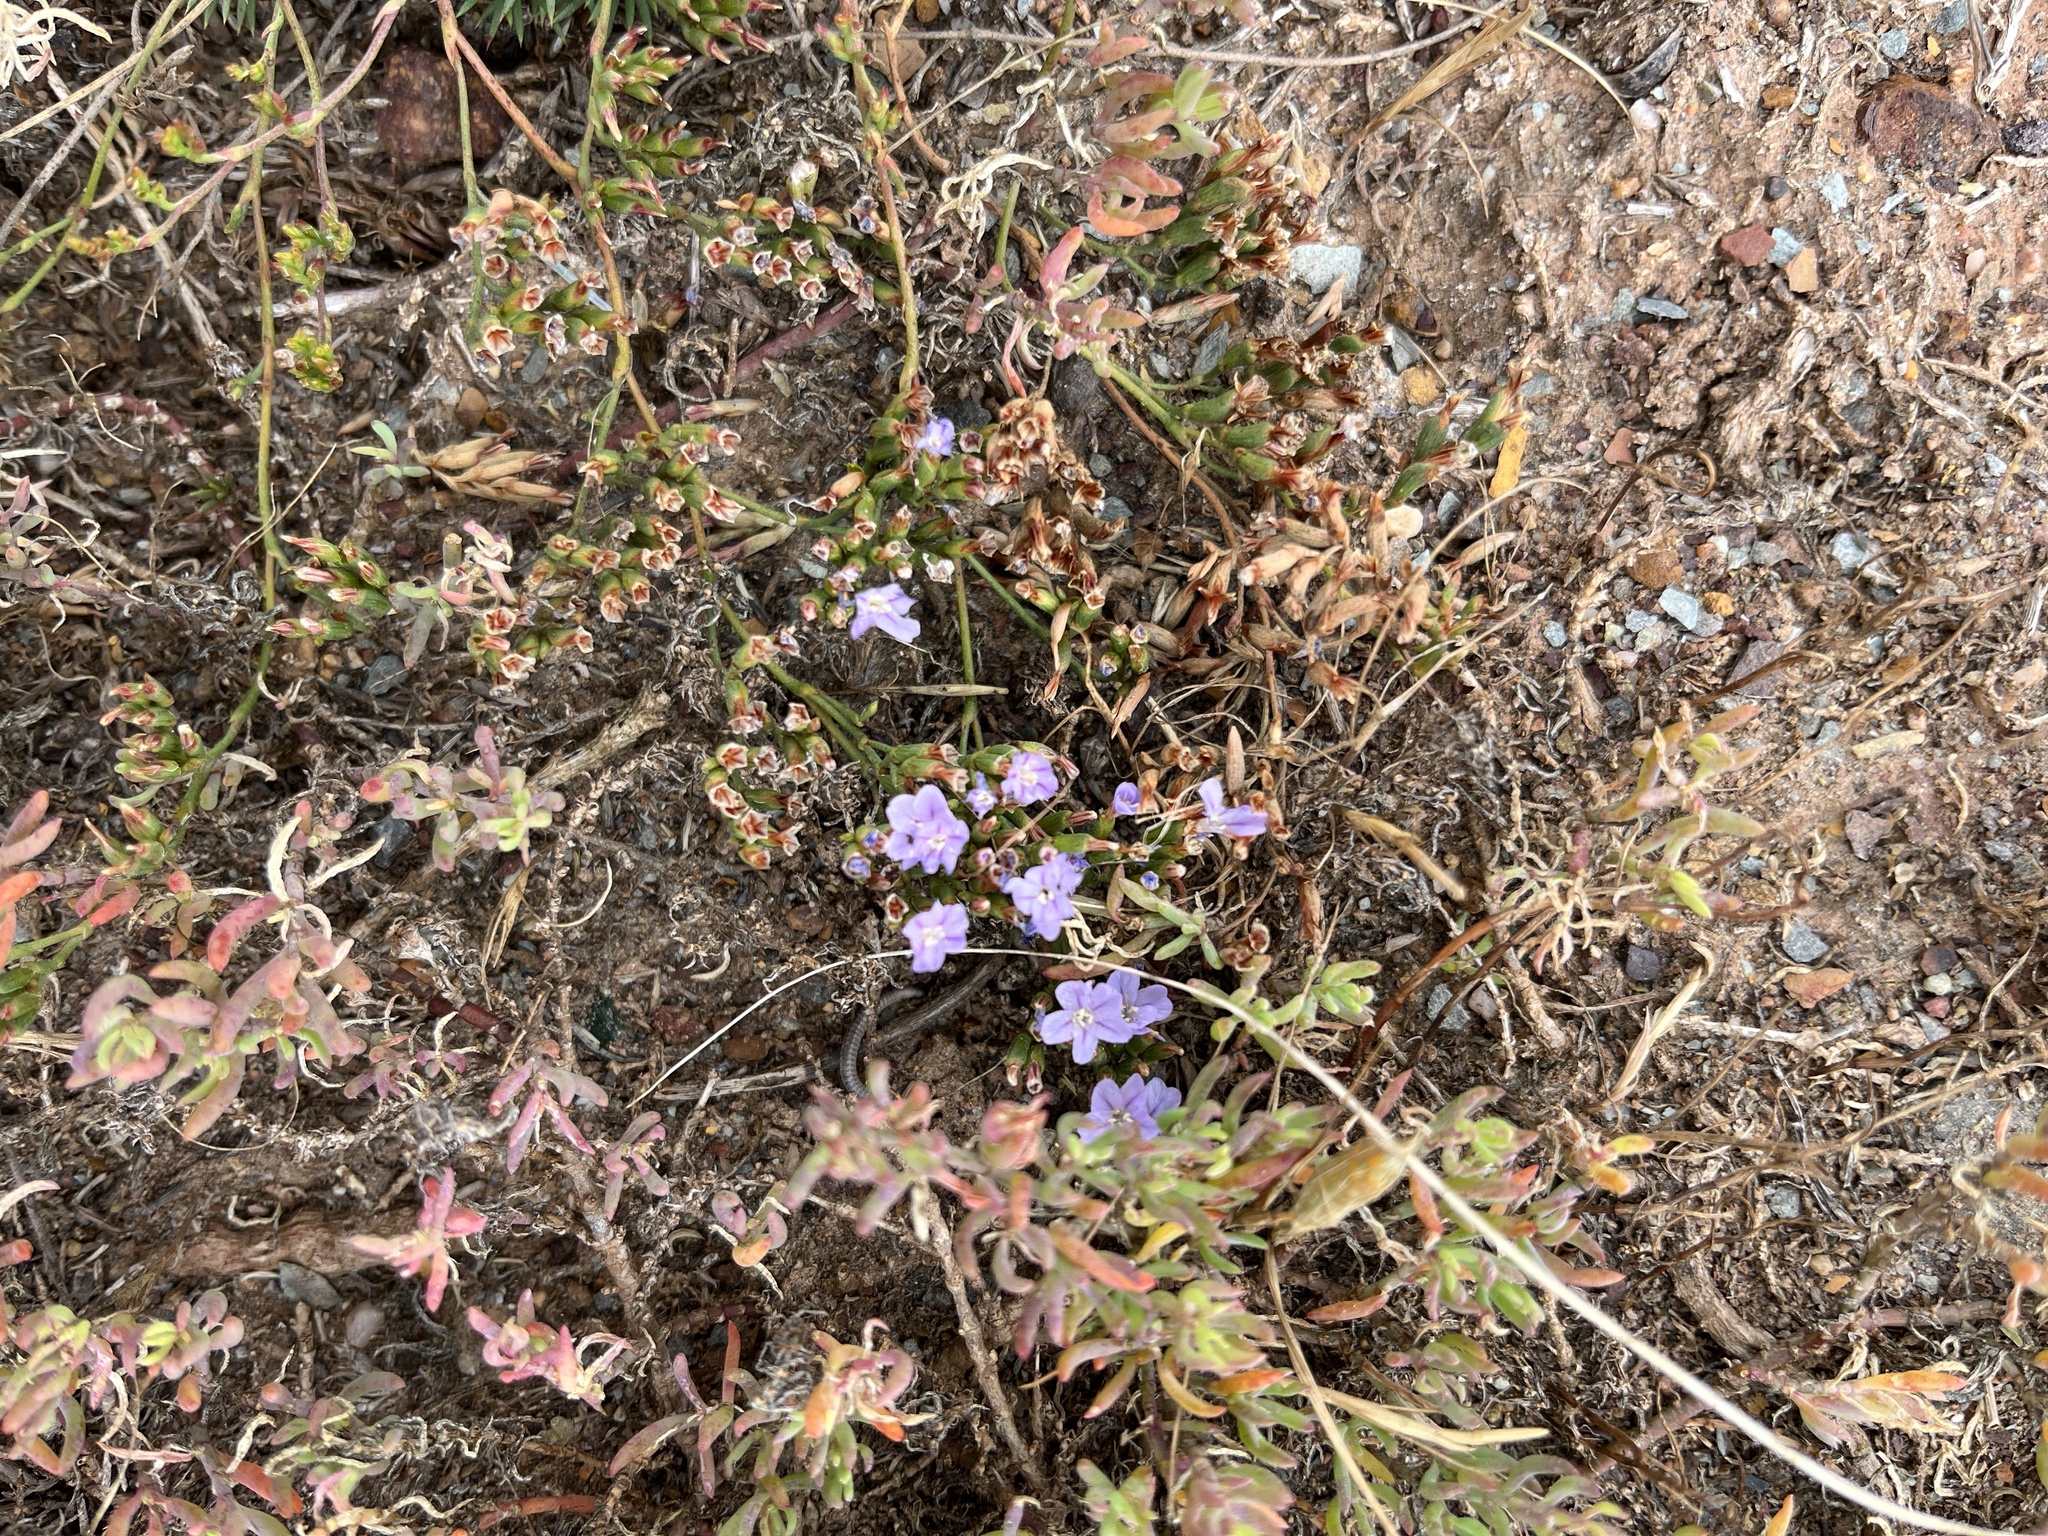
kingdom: Plantae
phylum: Tracheophyta
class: Magnoliopsida
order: Caryophyllales
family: Plumbaginaceae
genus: Limonium
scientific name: Limonium scabrum
